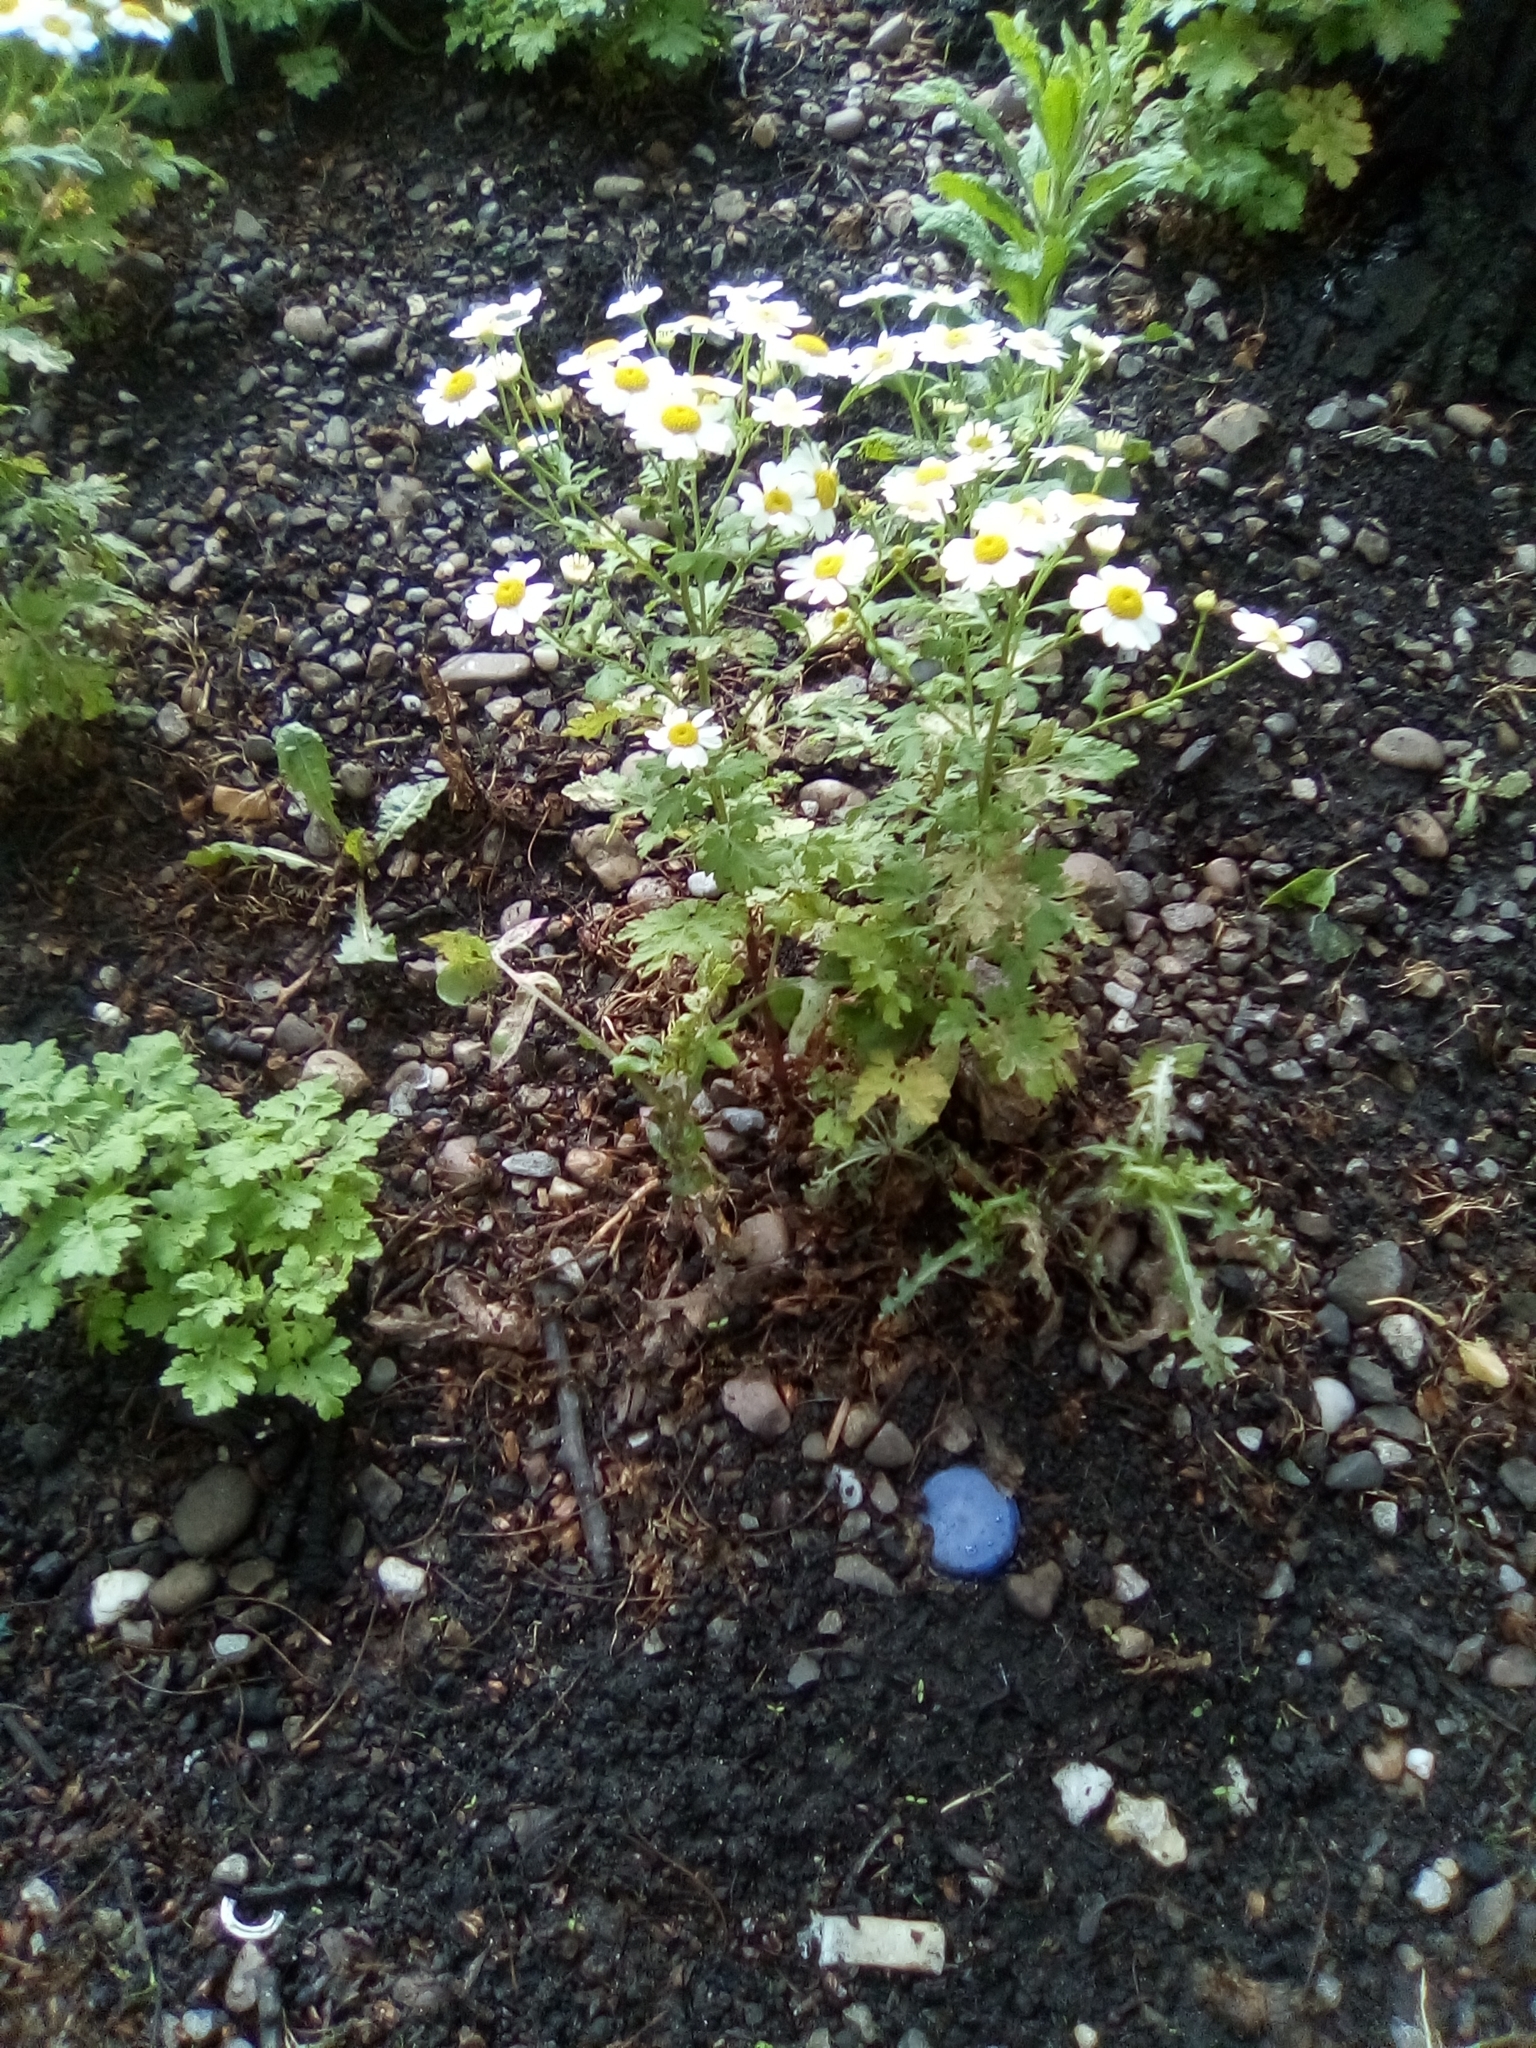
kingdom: Plantae
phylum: Tracheophyta
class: Magnoliopsida
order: Asterales
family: Asteraceae
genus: Tanacetum
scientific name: Tanacetum parthenium
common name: Feverfew
